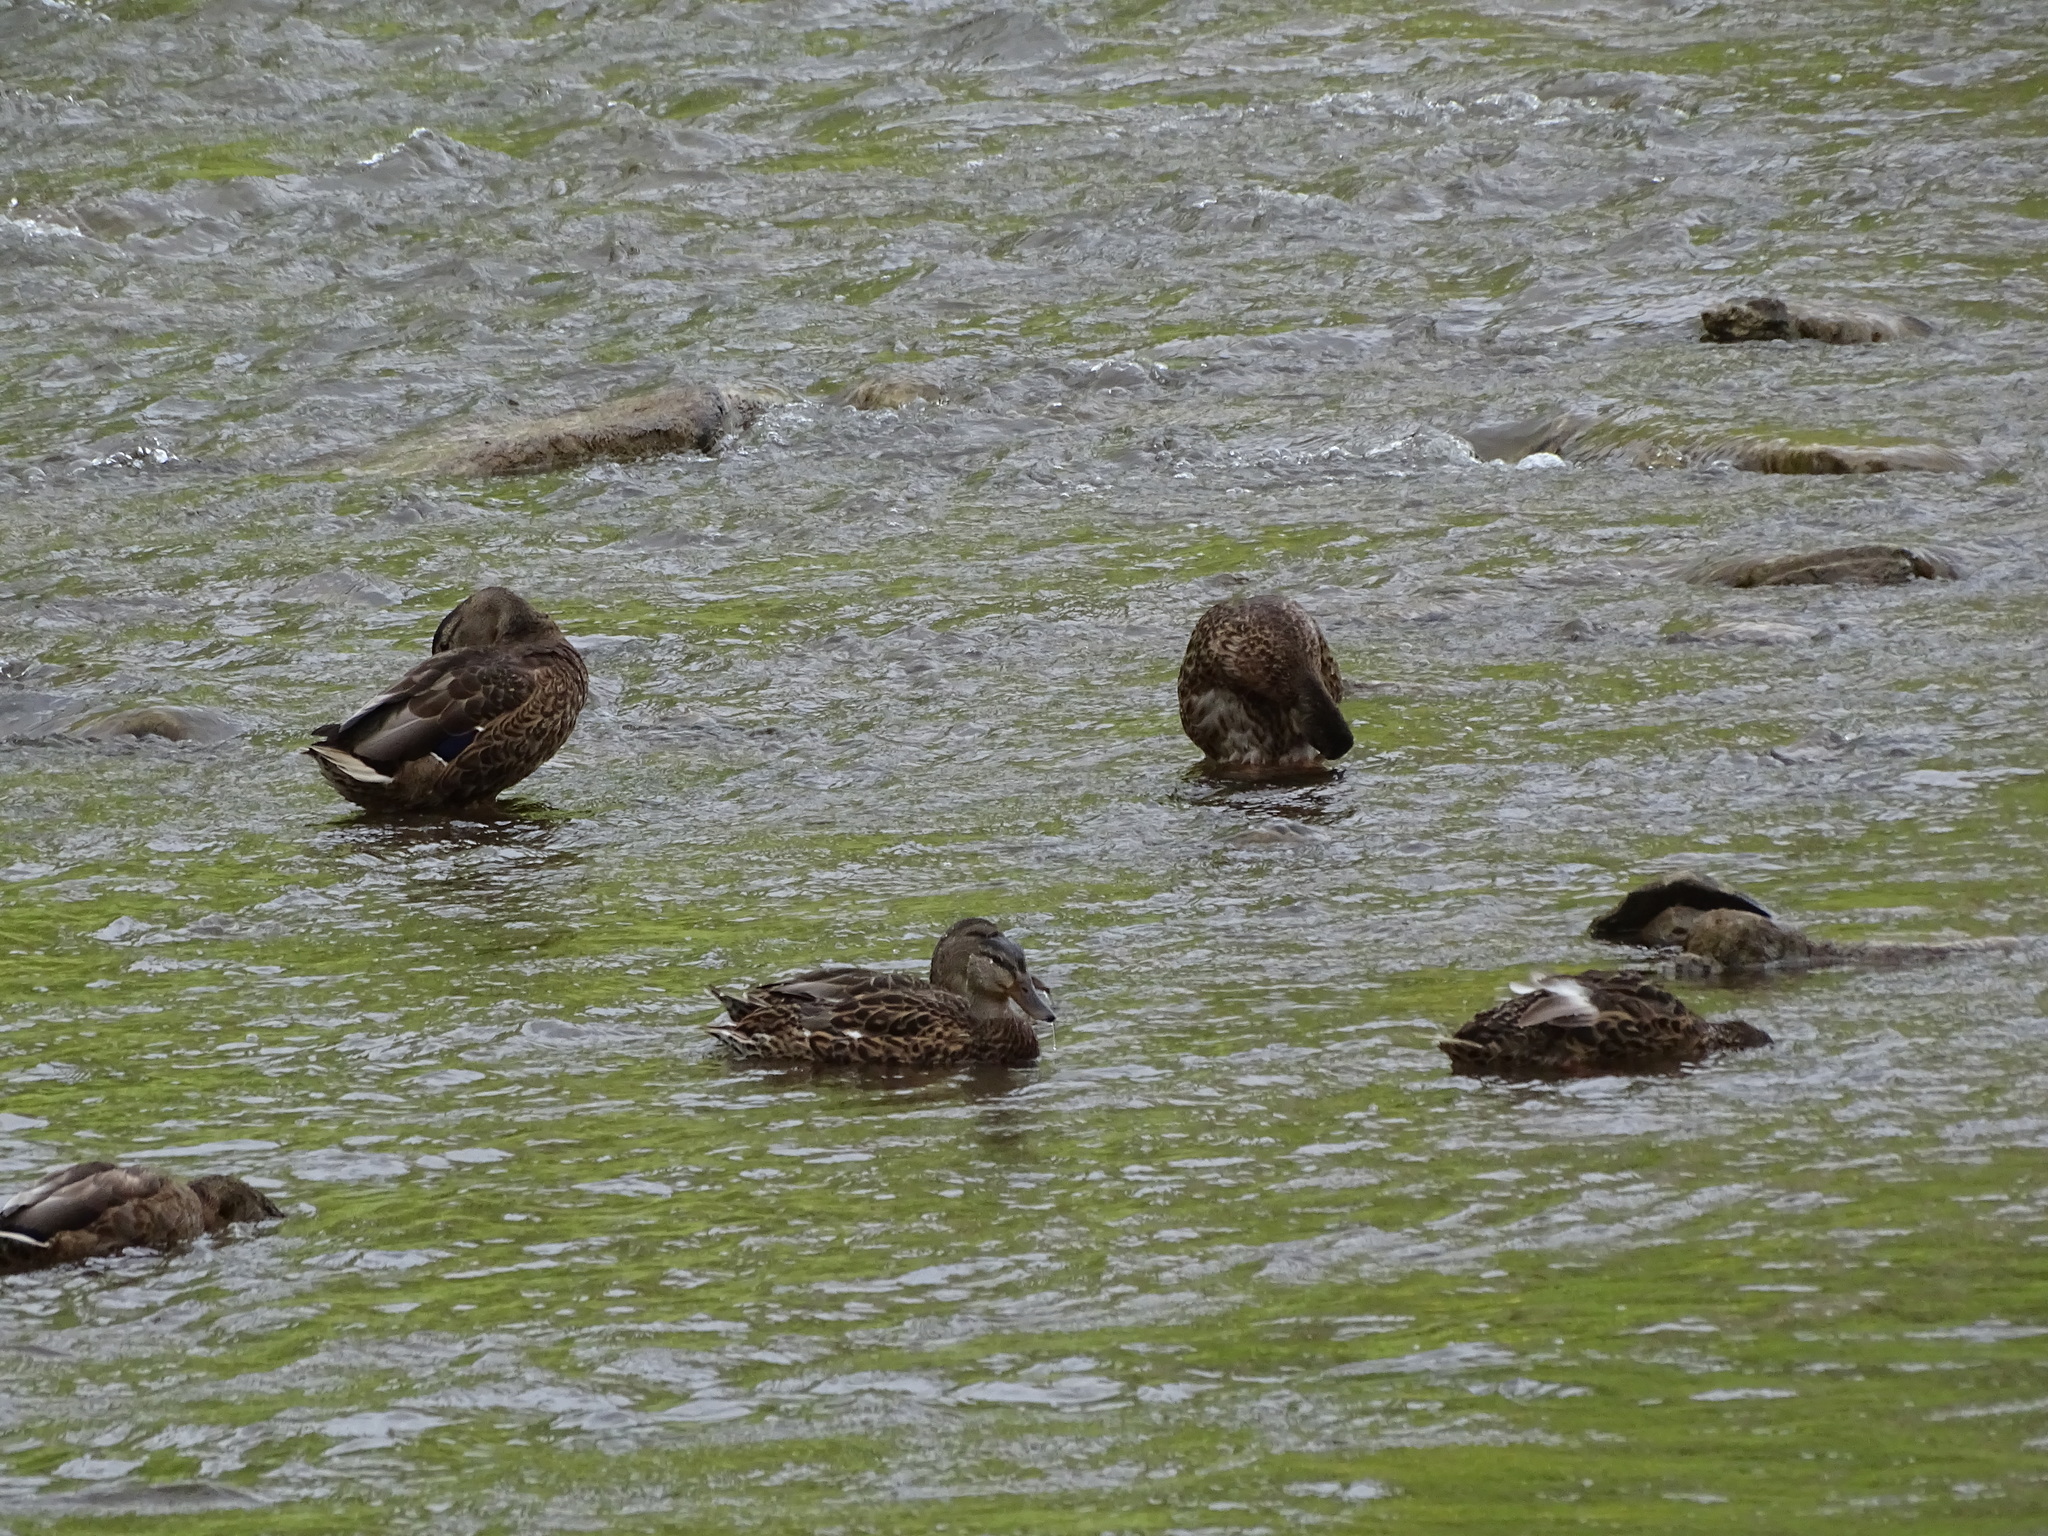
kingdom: Animalia
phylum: Chordata
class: Aves
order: Anseriformes
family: Anatidae
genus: Anas
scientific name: Anas platyrhynchos
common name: Mallard
